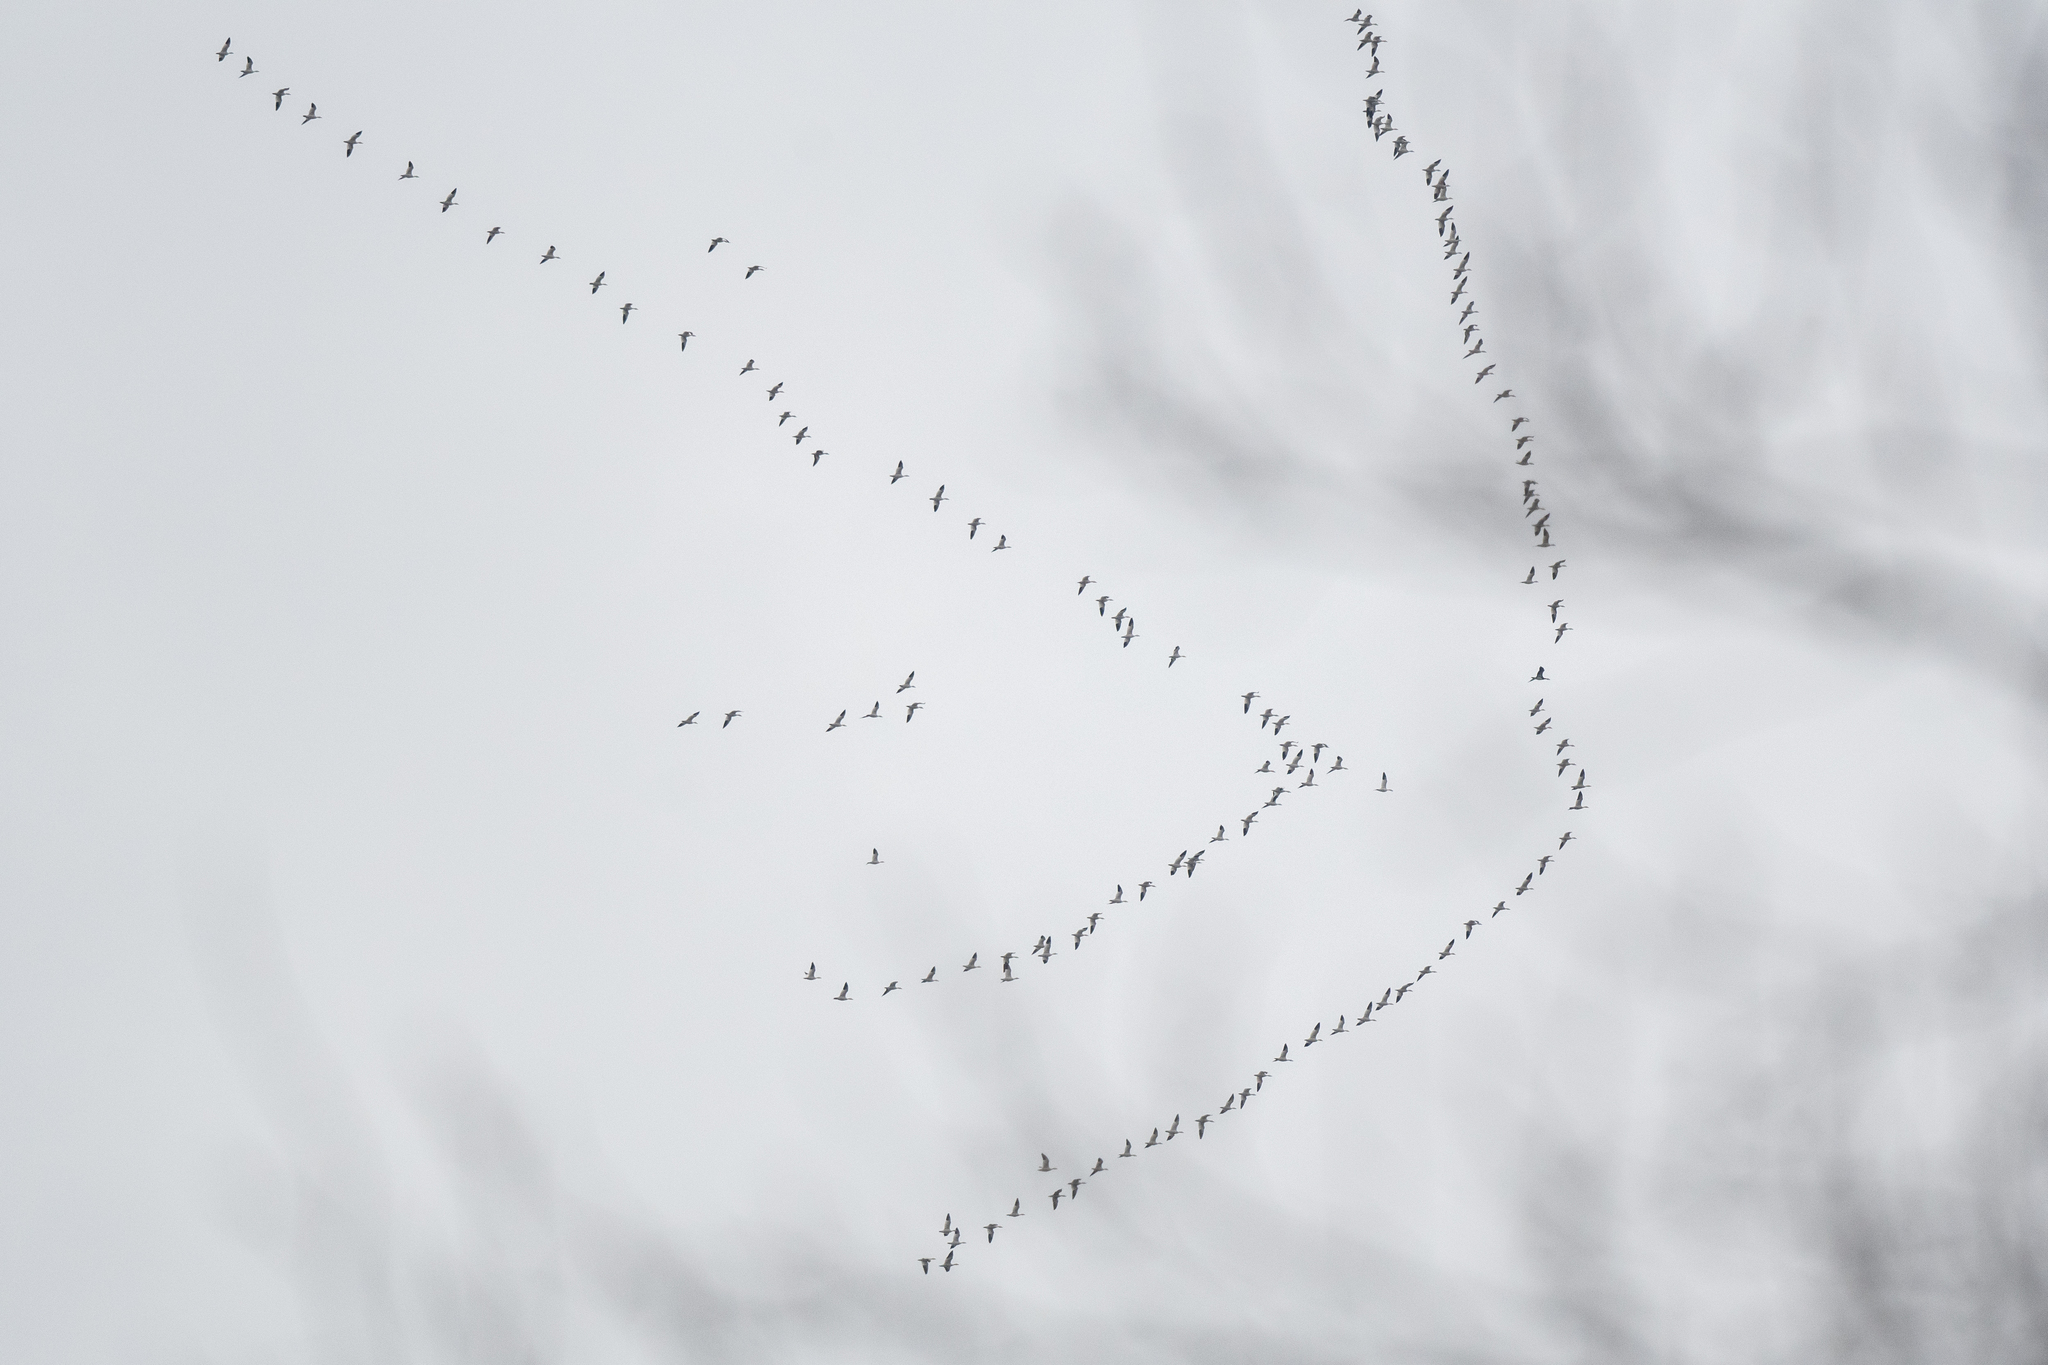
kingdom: Animalia
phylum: Chordata
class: Aves
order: Anseriformes
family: Anatidae
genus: Anser
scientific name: Anser caerulescens
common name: Snow goose
